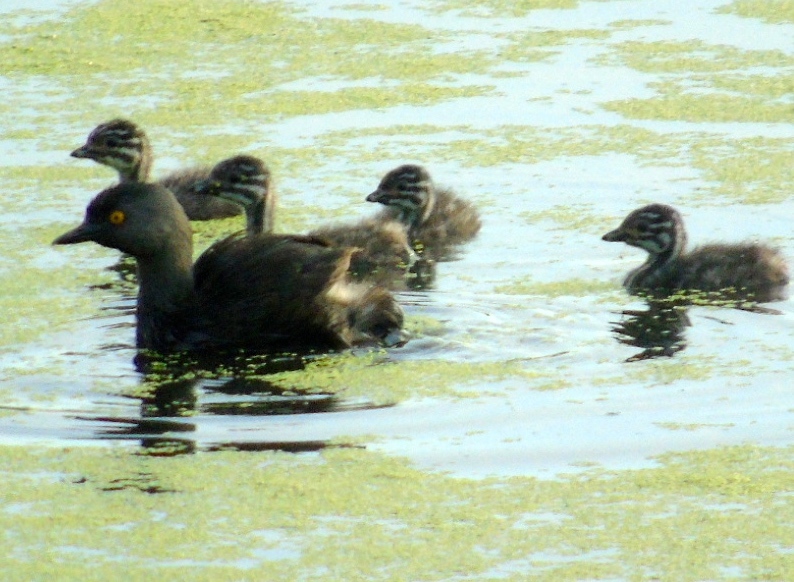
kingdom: Animalia
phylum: Chordata
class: Aves
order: Podicipediformes
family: Podicipedidae
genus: Tachybaptus
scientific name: Tachybaptus dominicus
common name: Least grebe
